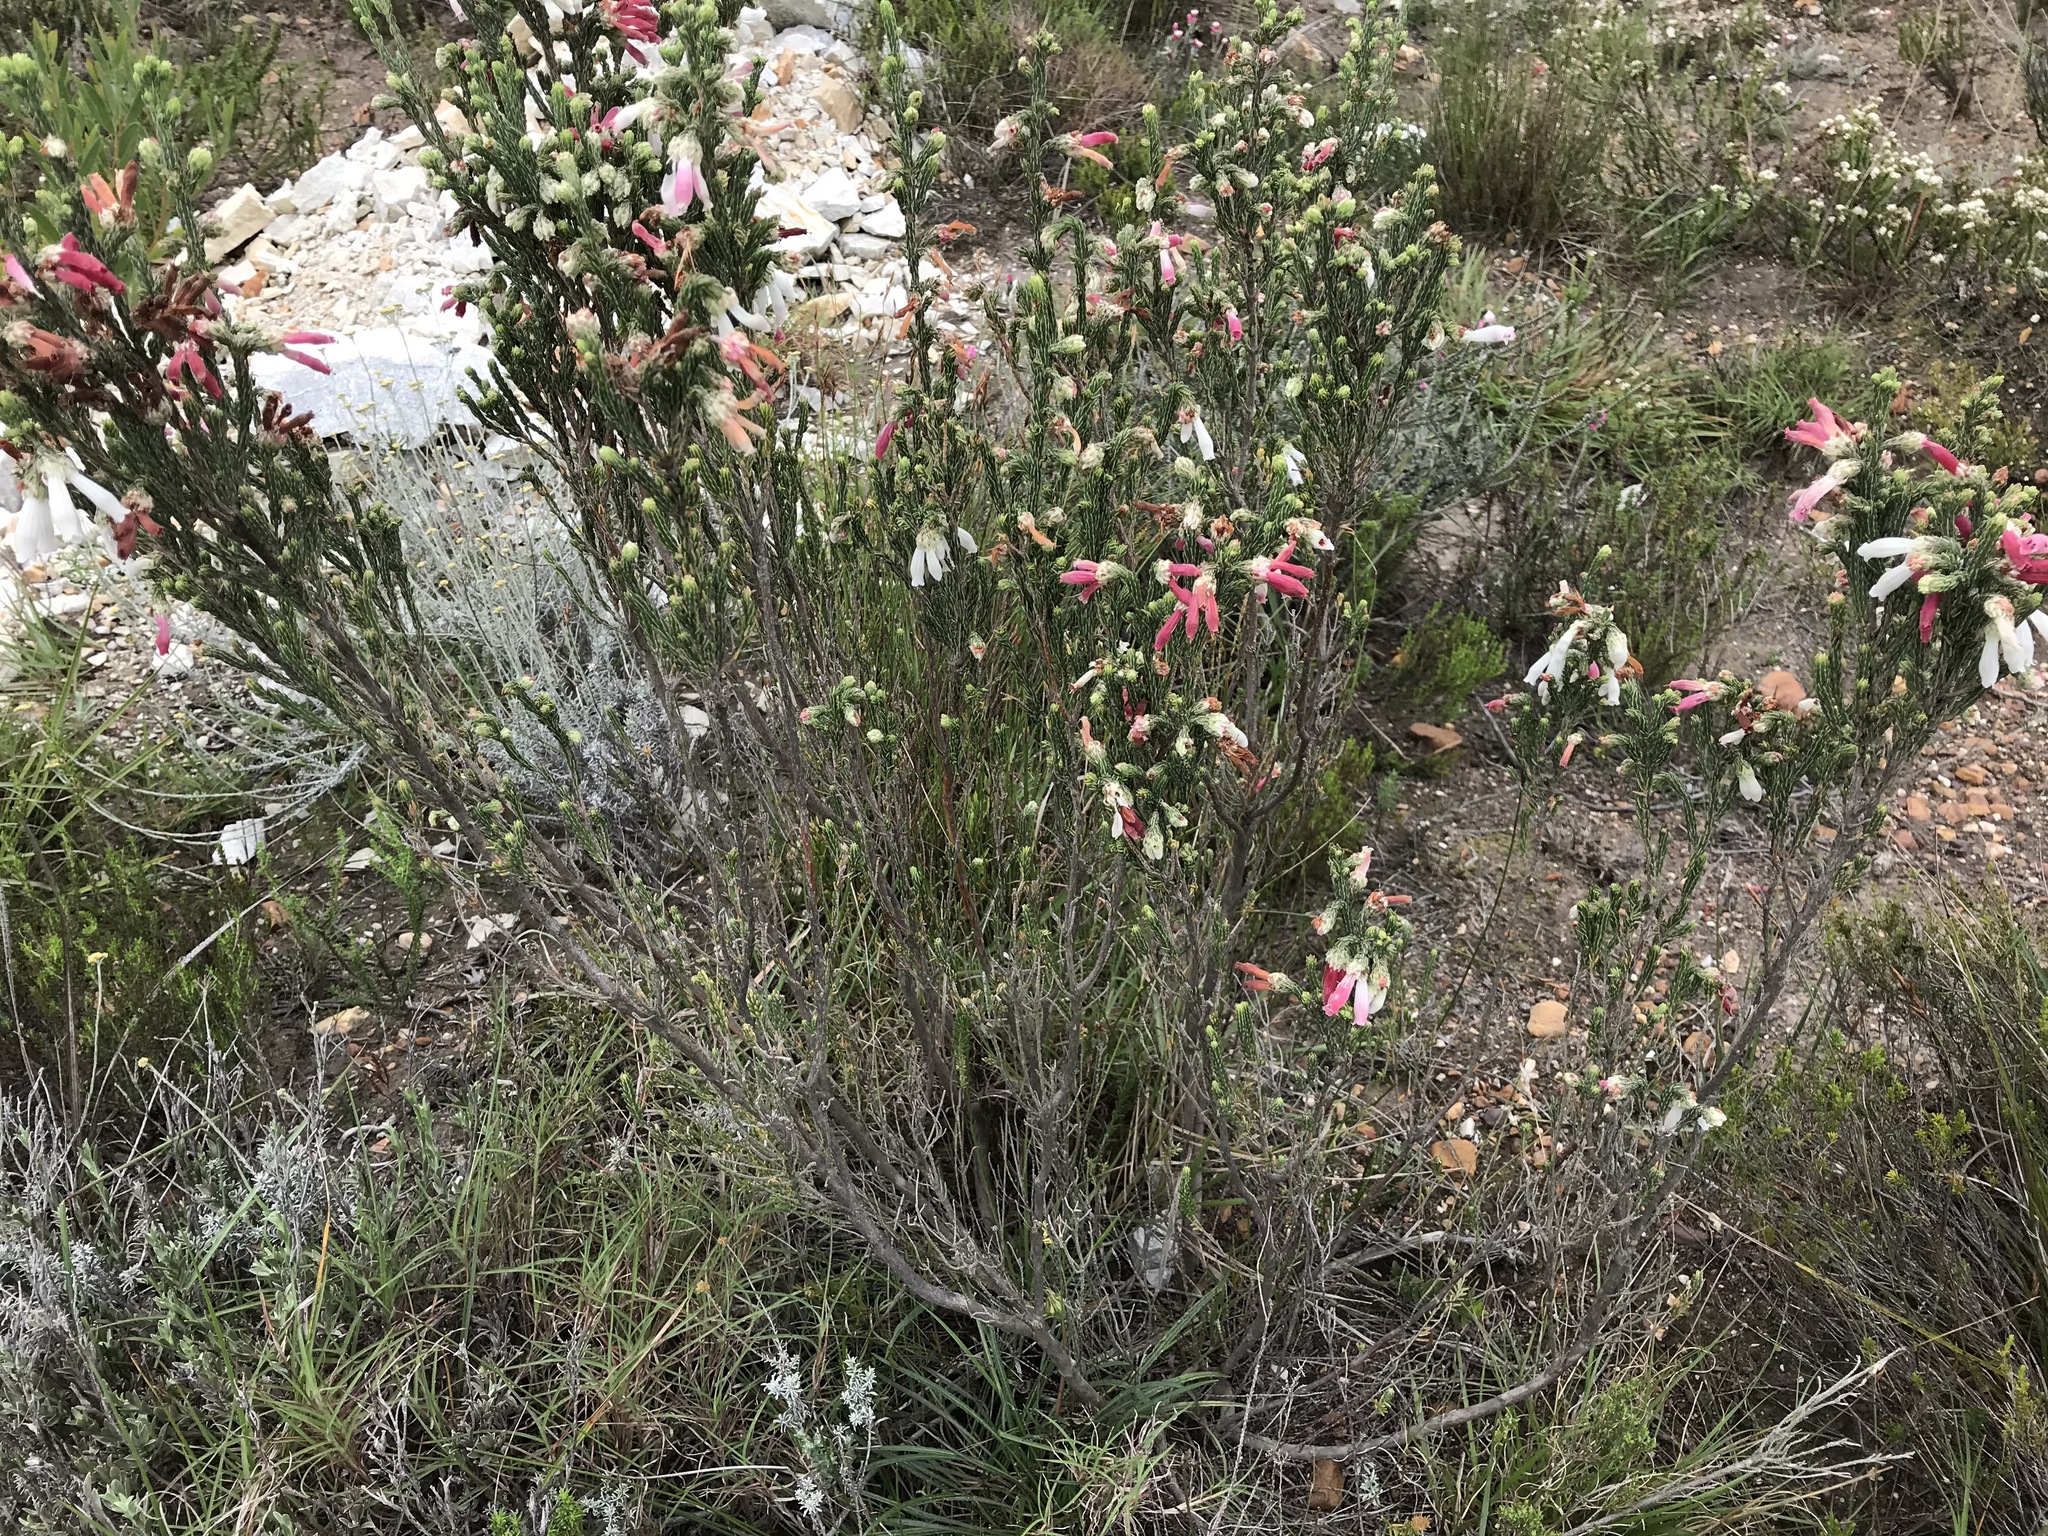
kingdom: Plantae
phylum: Tracheophyta
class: Magnoliopsida
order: Ericales
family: Ericaceae
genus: Erica
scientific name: Erica pectinifolia
